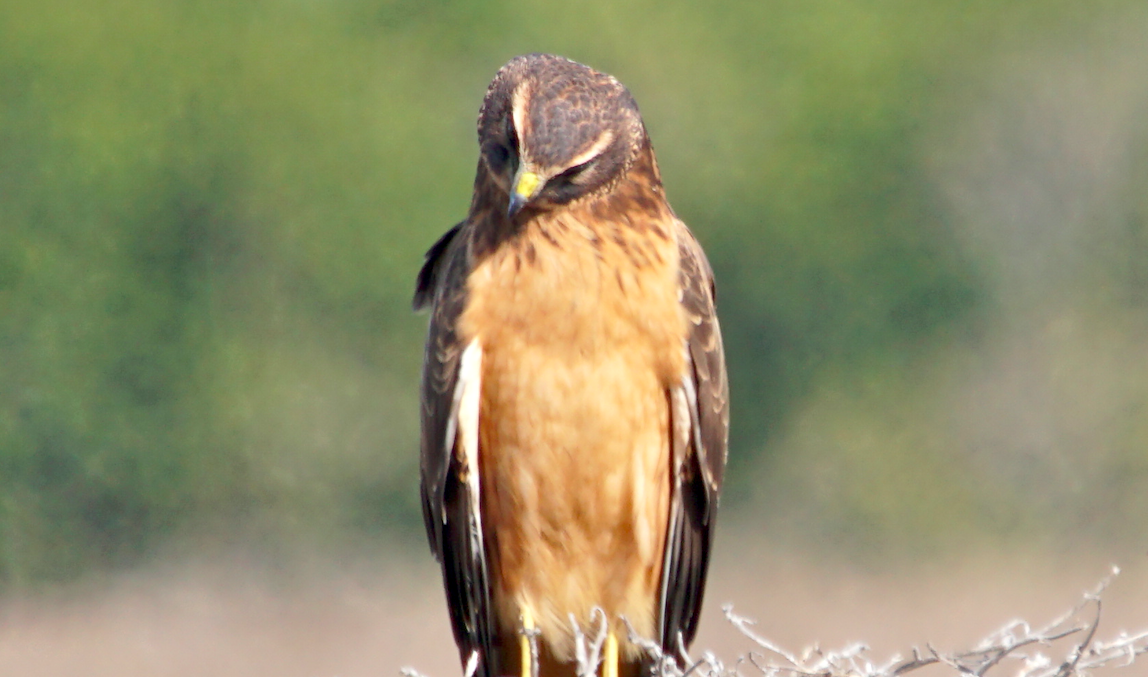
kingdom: Animalia
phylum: Chordata
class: Aves
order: Accipitriformes
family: Accipitridae
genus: Circus
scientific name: Circus cyaneus
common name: Hen harrier
